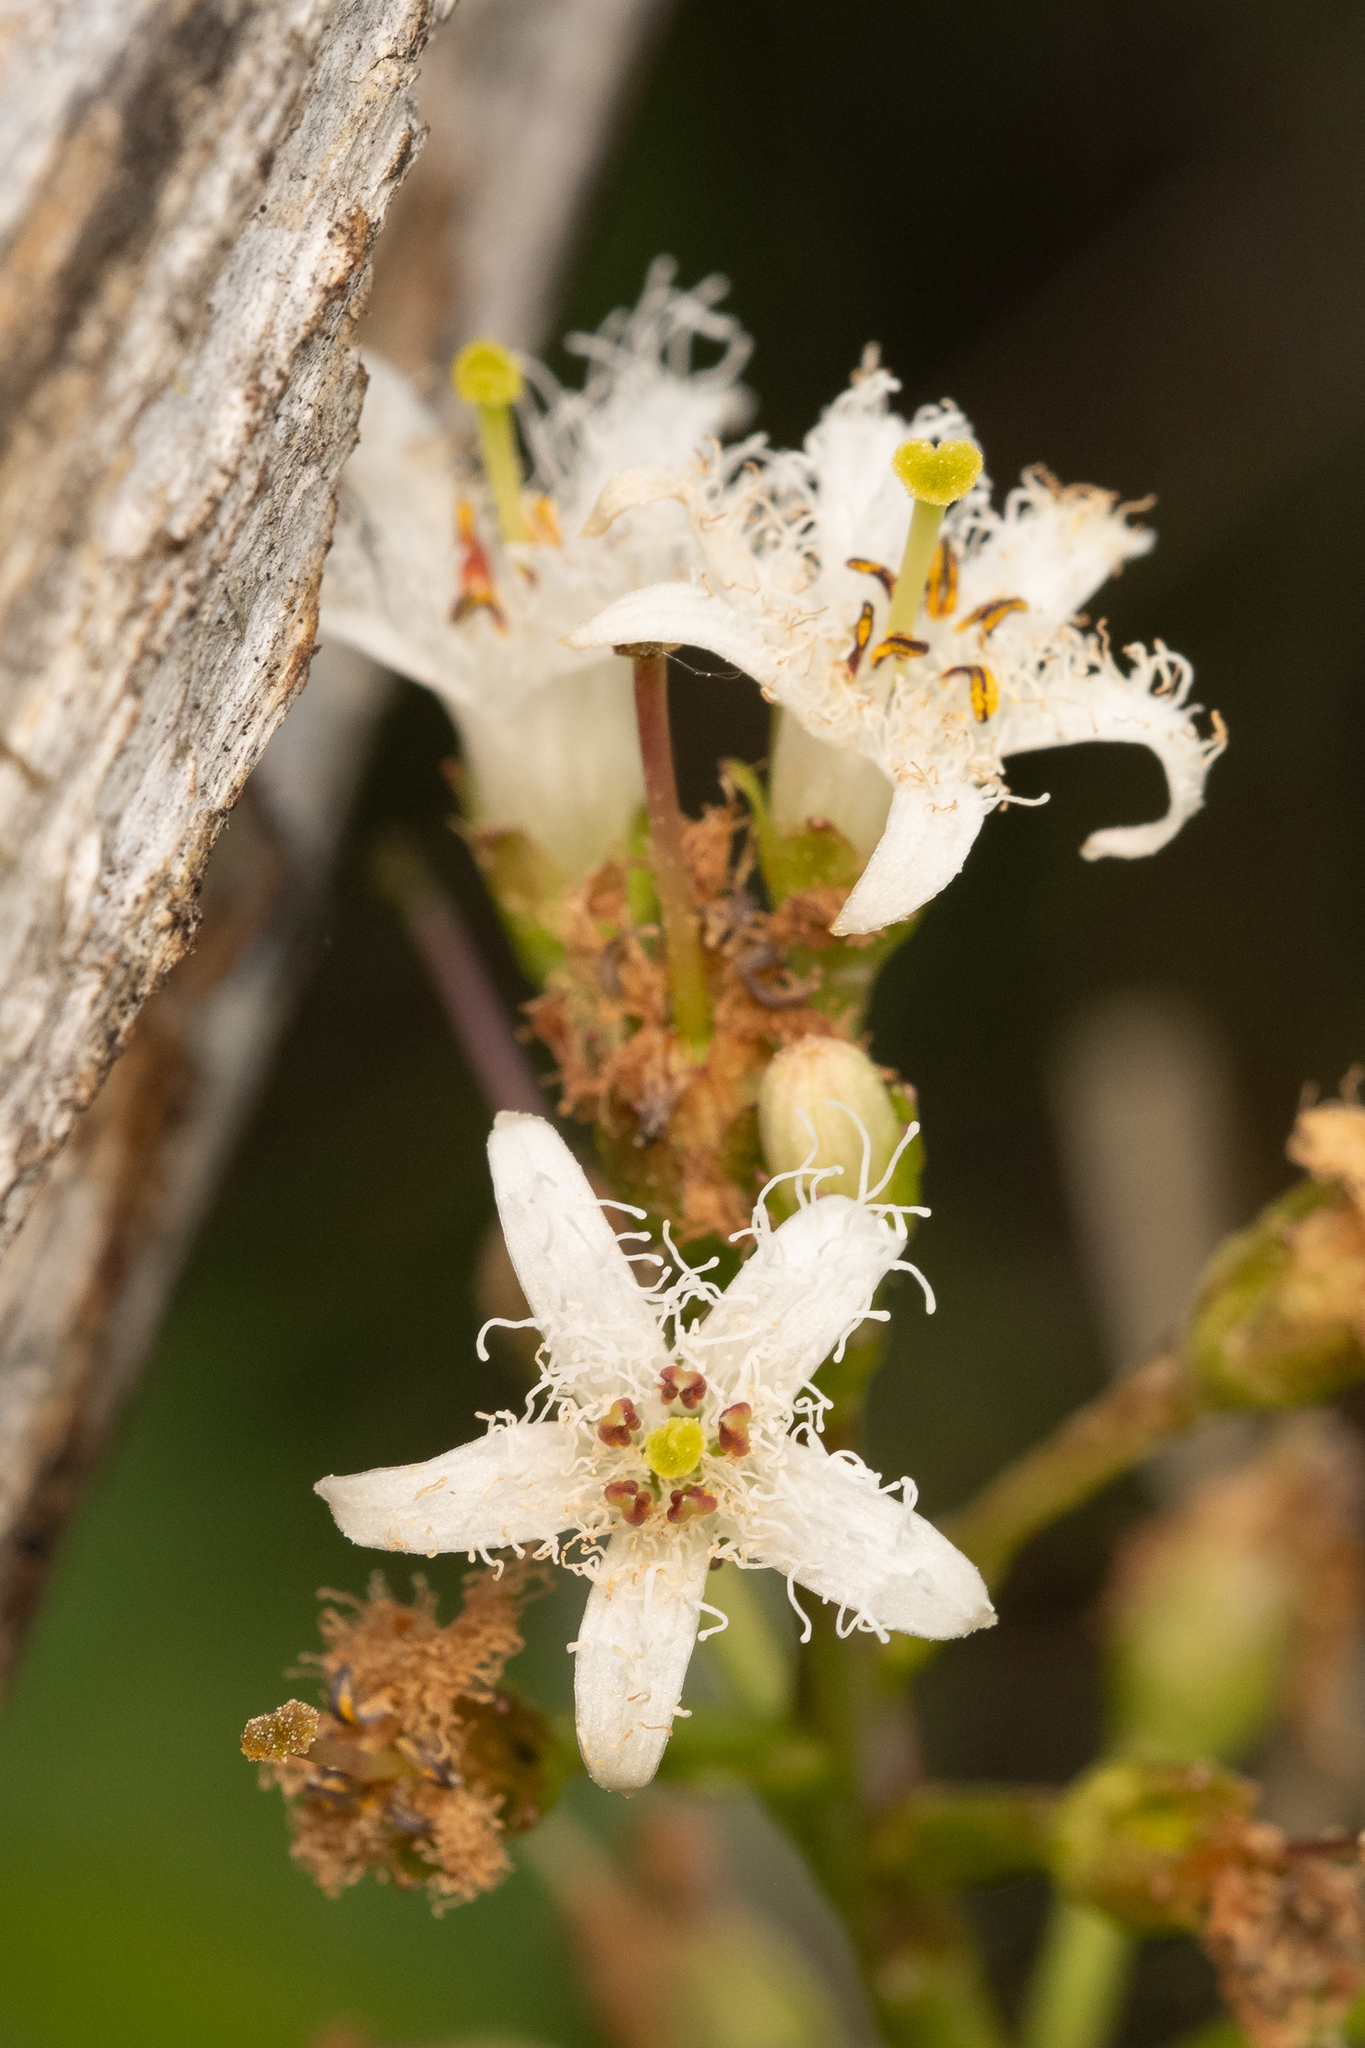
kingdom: Plantae
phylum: Tracheophyta
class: Magnoliopsida
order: Asterales
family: Menyanthaceae
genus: Menyanthes
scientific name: Menyanthes trifoliata
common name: Bogbean
